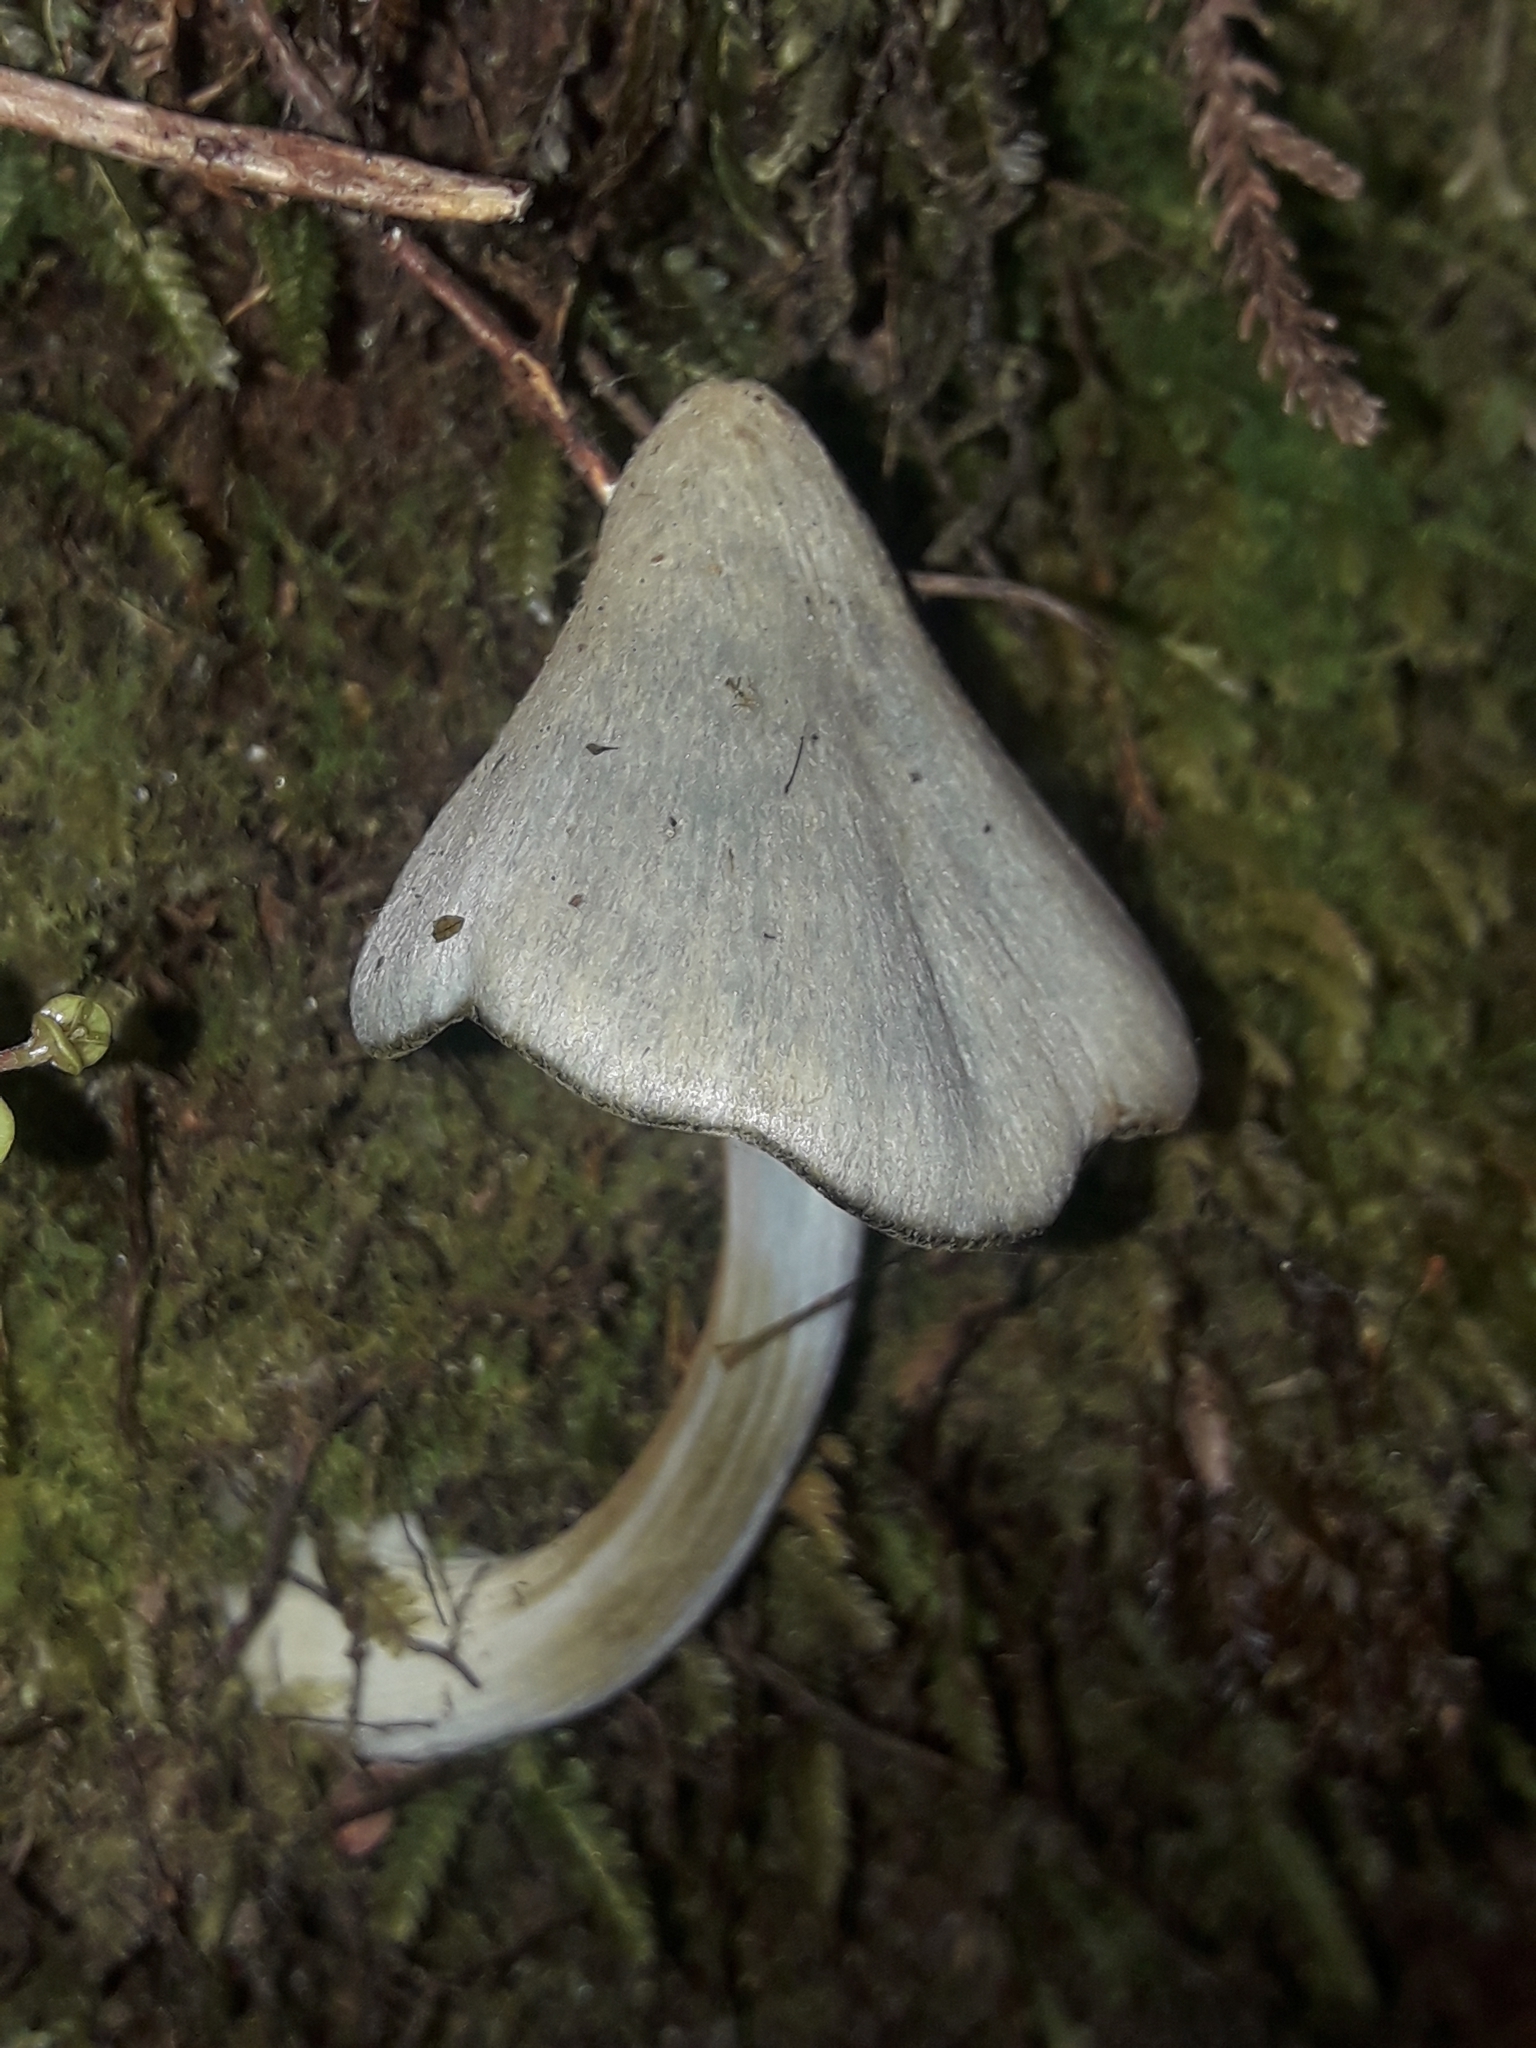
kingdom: Fungi
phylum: Basidiomycota
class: Agaricomycetes
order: Agaricales
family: Entolomataceae
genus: Entoloma
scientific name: Entoloma canoconicum
